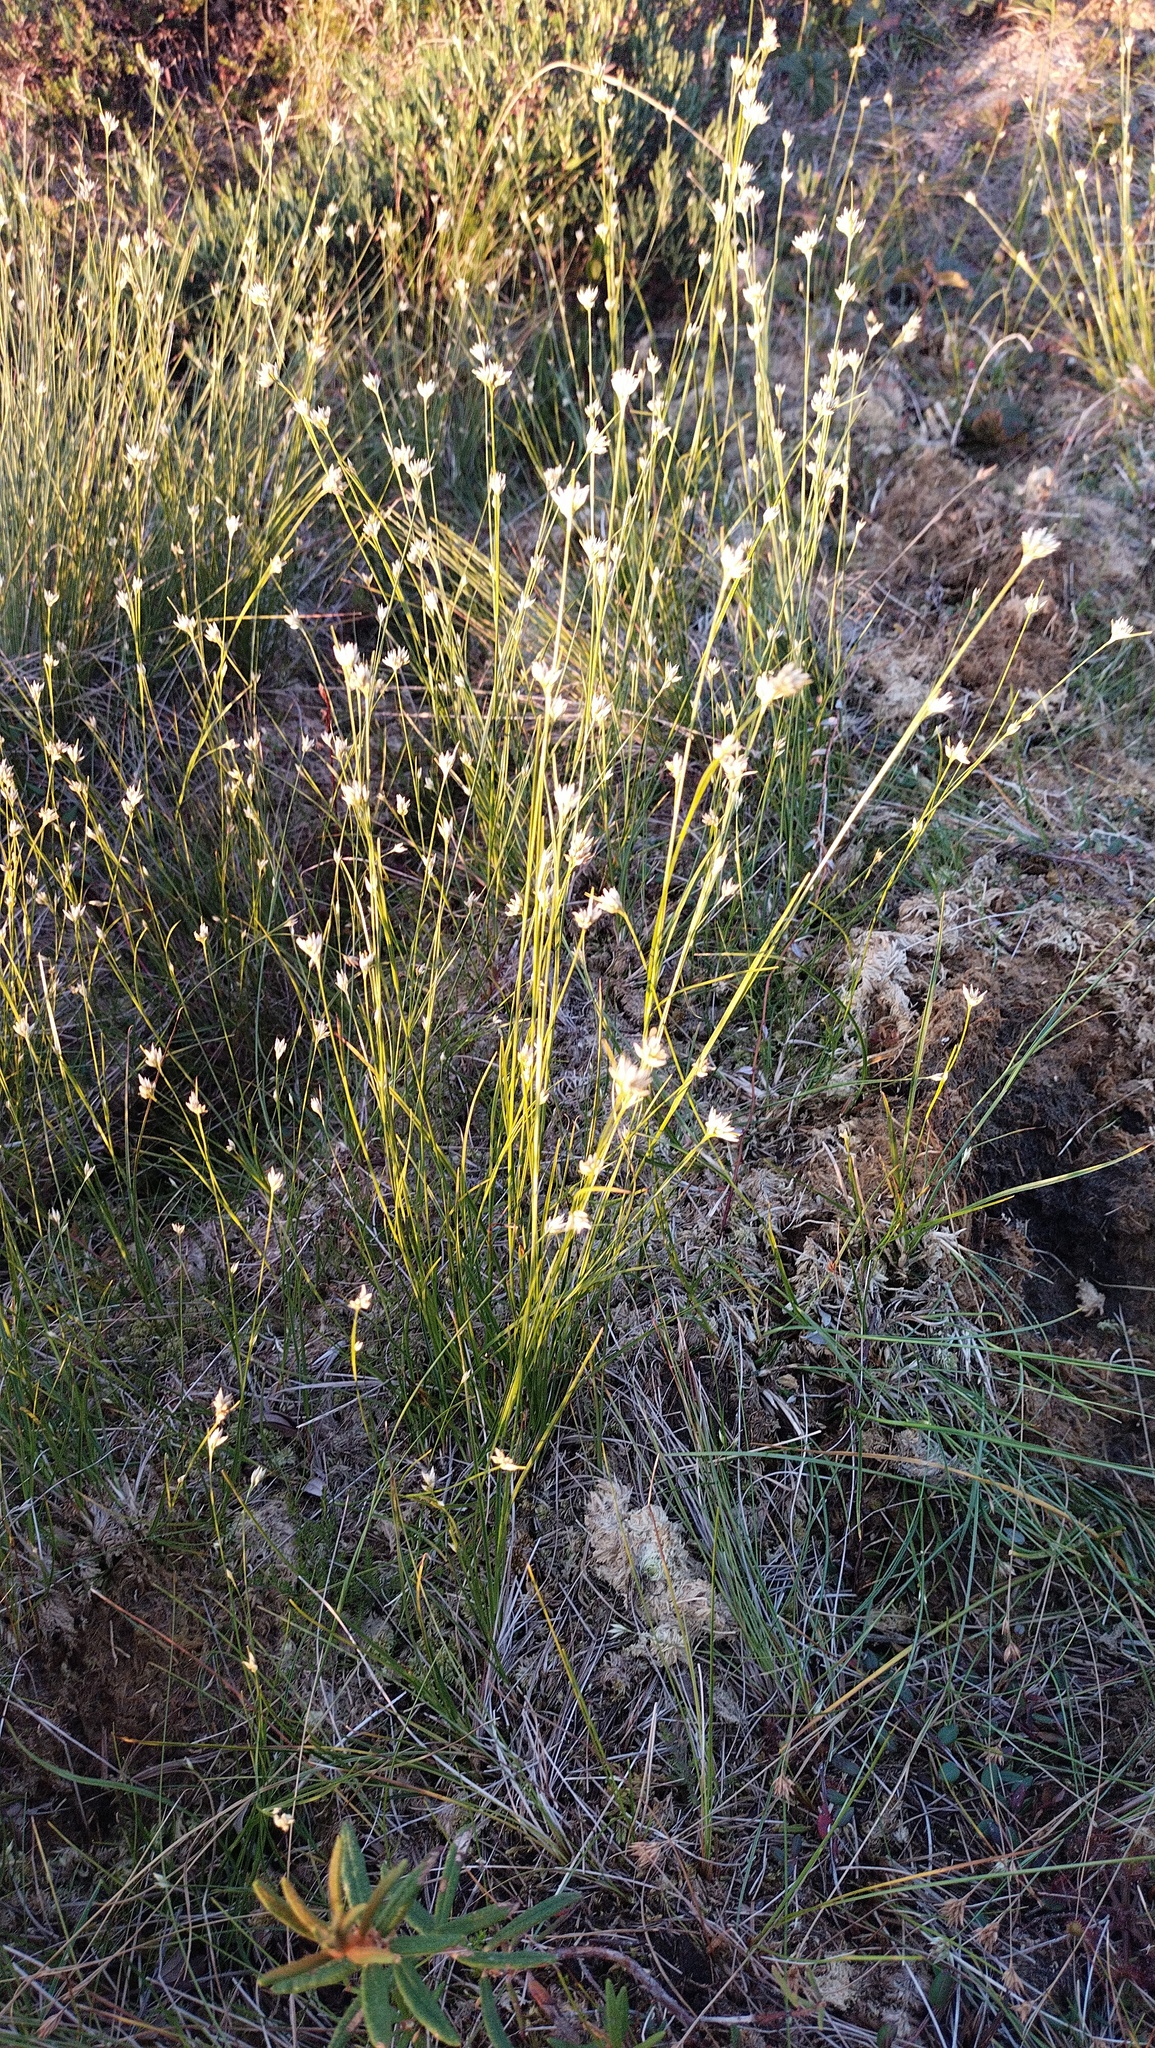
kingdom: Plantae
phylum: Tracheophyta
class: Liliopsida
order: Poales
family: Cyperaceae
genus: Rhynchospora
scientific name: Rhynchospora alba
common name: White beak-sedge
